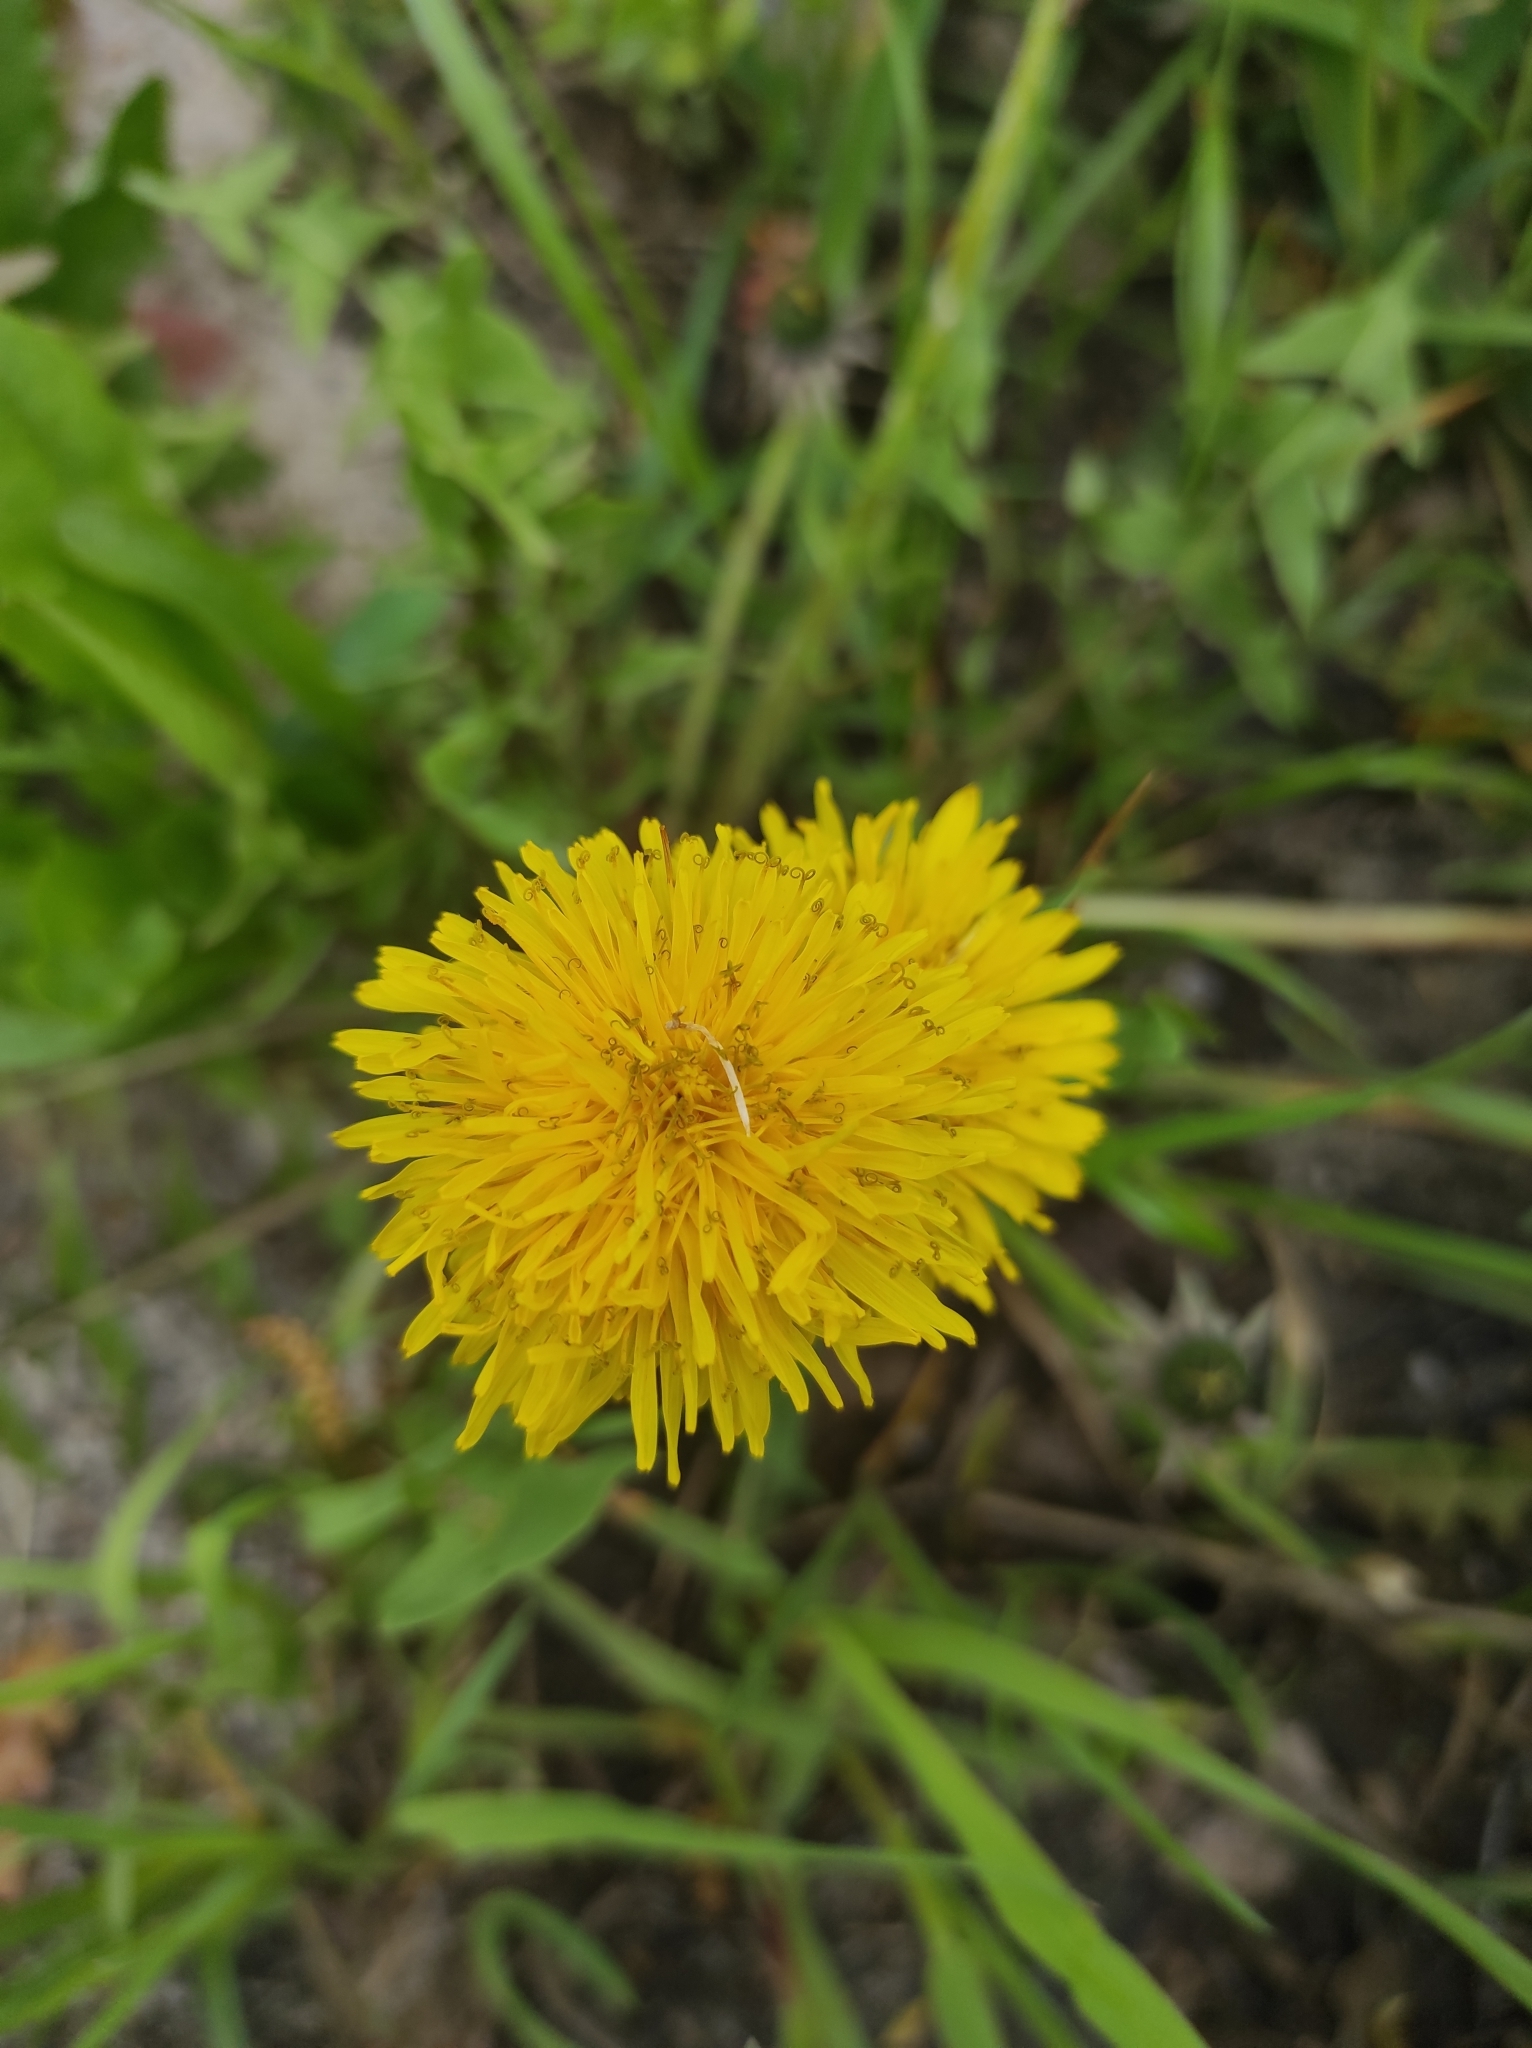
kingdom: Plantae
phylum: Tracheophyta
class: Magnoliopsida
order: Asterales
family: Asteraceae
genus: Taraxacum
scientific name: Taraxacum officinale
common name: Common dandelion
